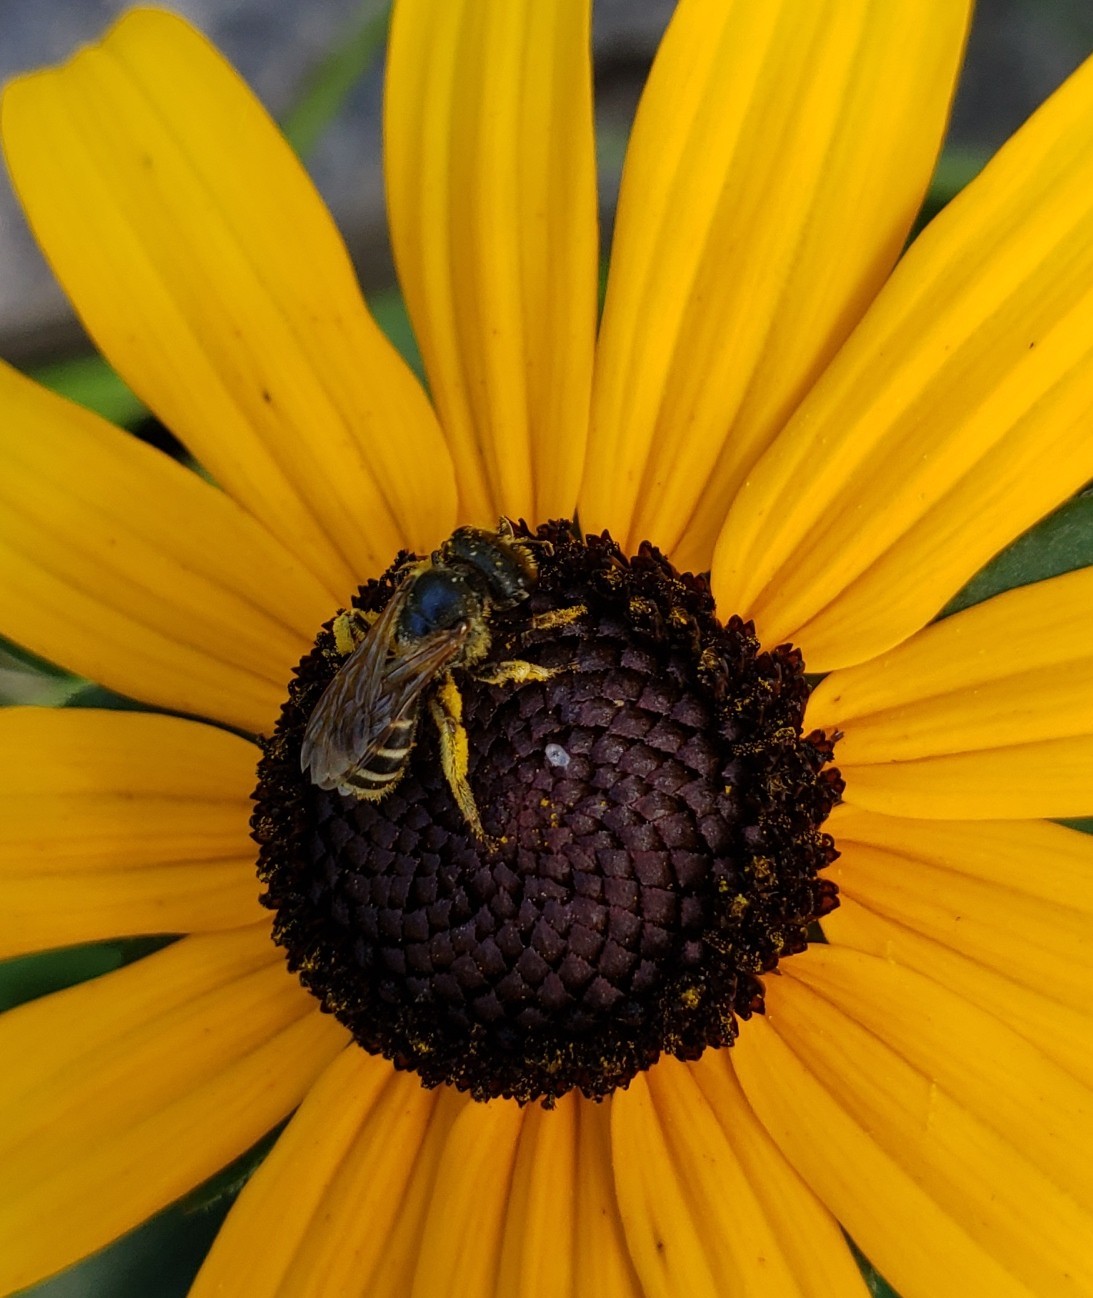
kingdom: Animalia
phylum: Arthropoda
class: Insecta
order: Hymenoptera
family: Halictidae
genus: Halictus
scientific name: Halictus ligatus
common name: Ligated furrow bee
